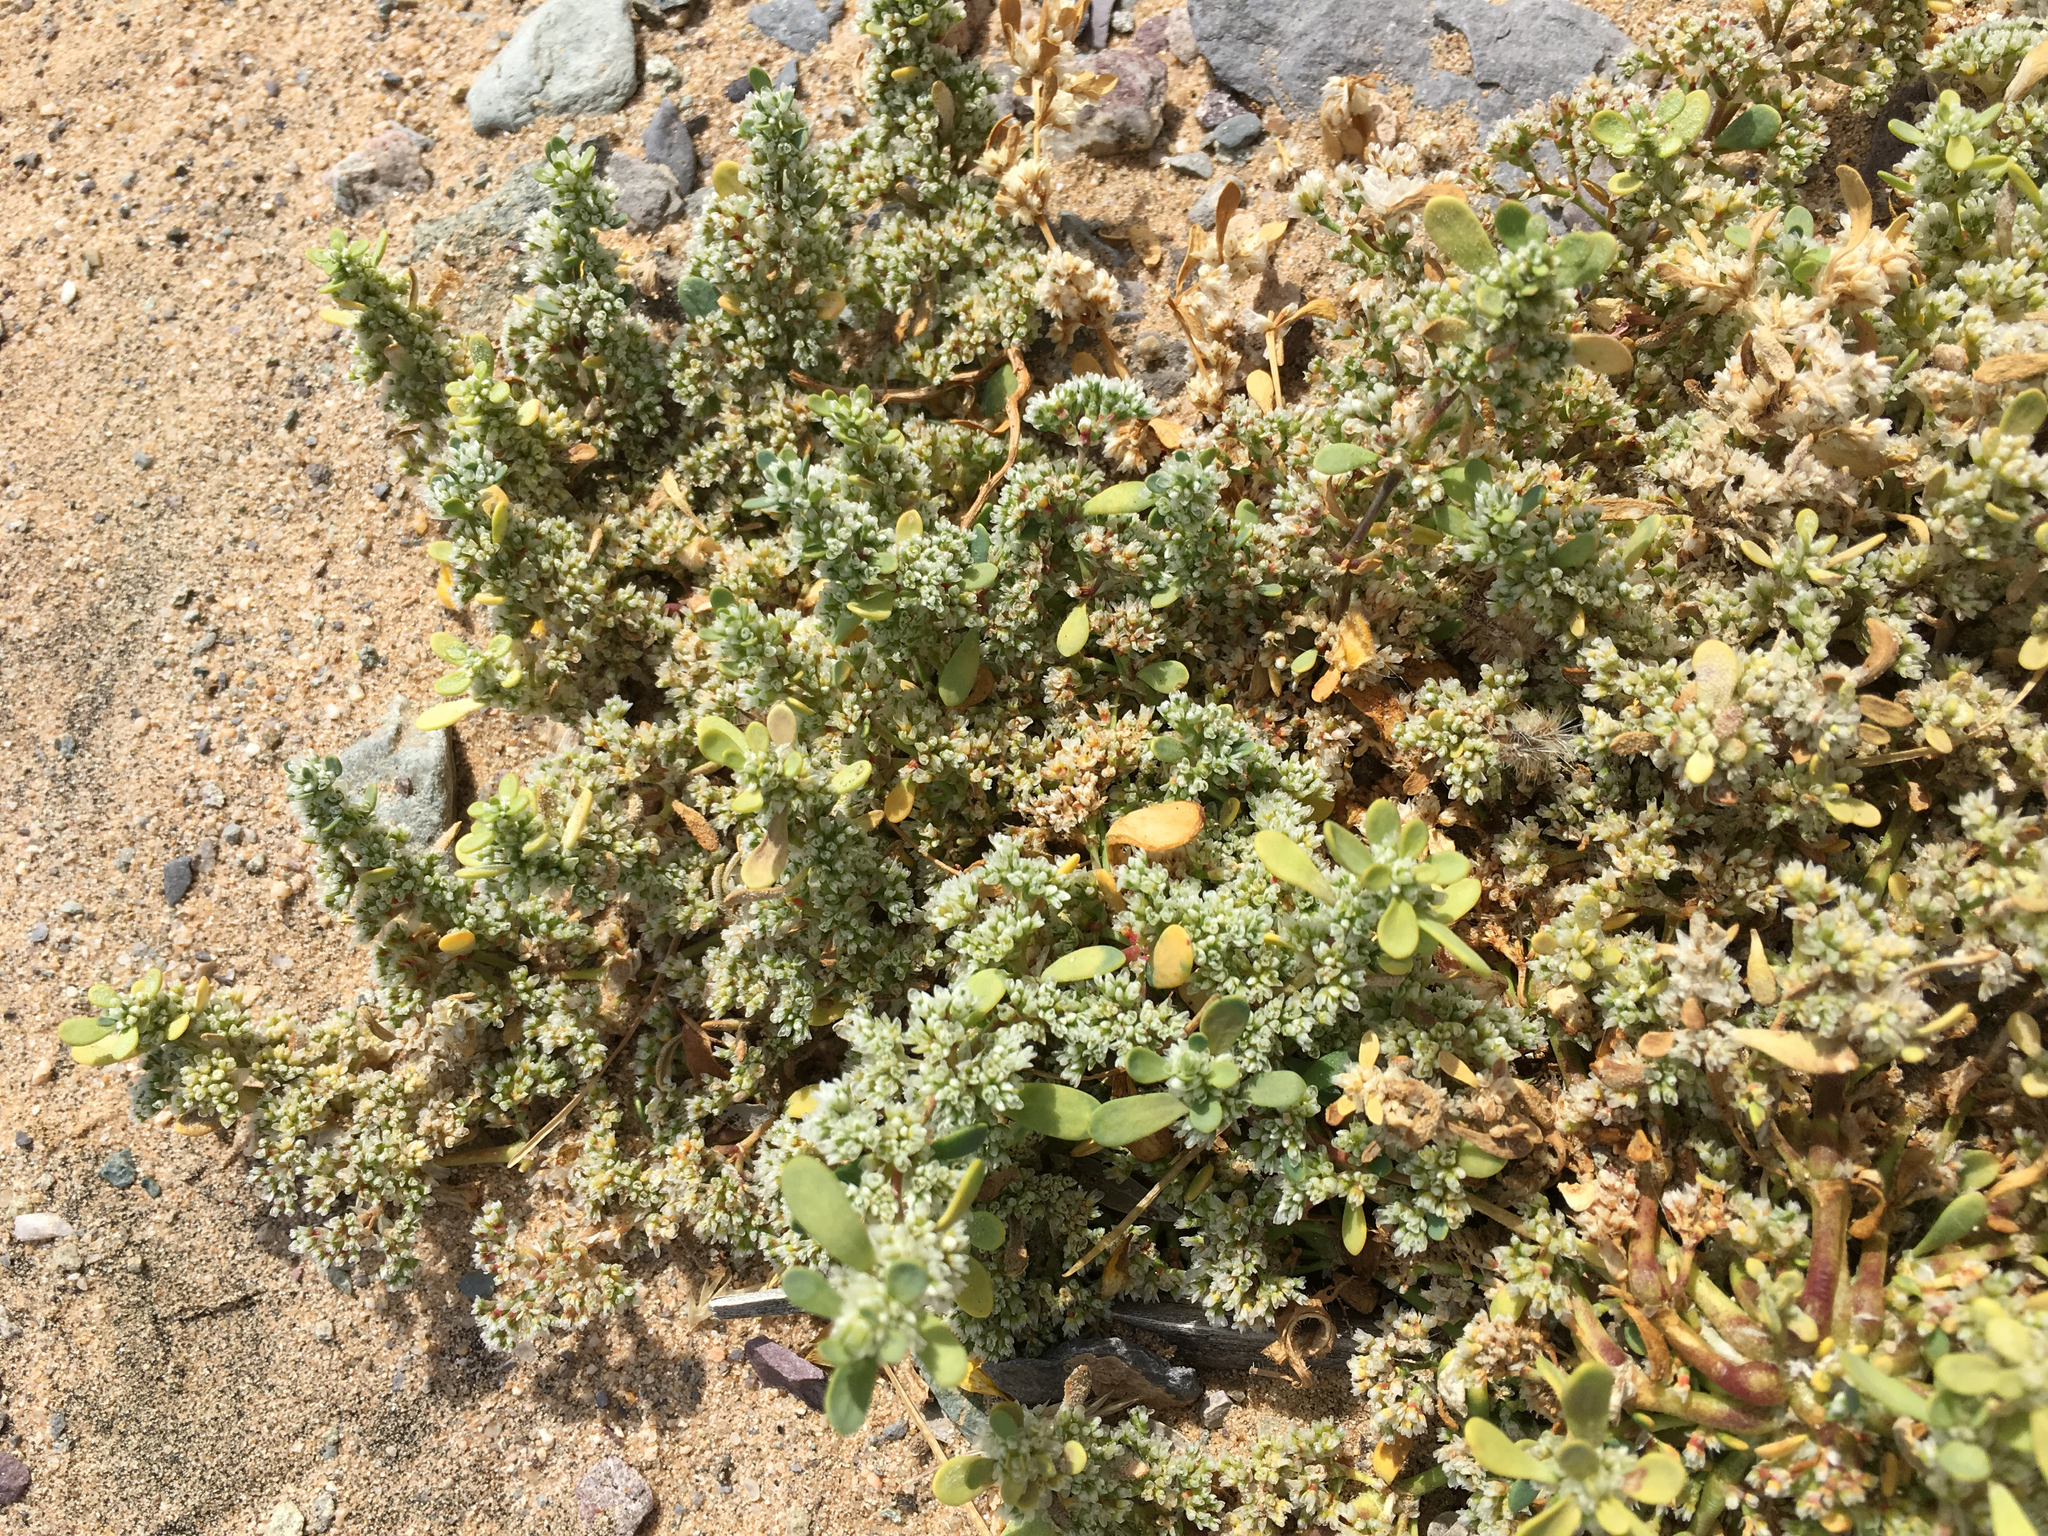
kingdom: Plantae
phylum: Tracheophyta
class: Magnoliopsida
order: Caryophyllales
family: Caryophyllaceae
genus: Achyronychia
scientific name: Achyronychia cooperi
